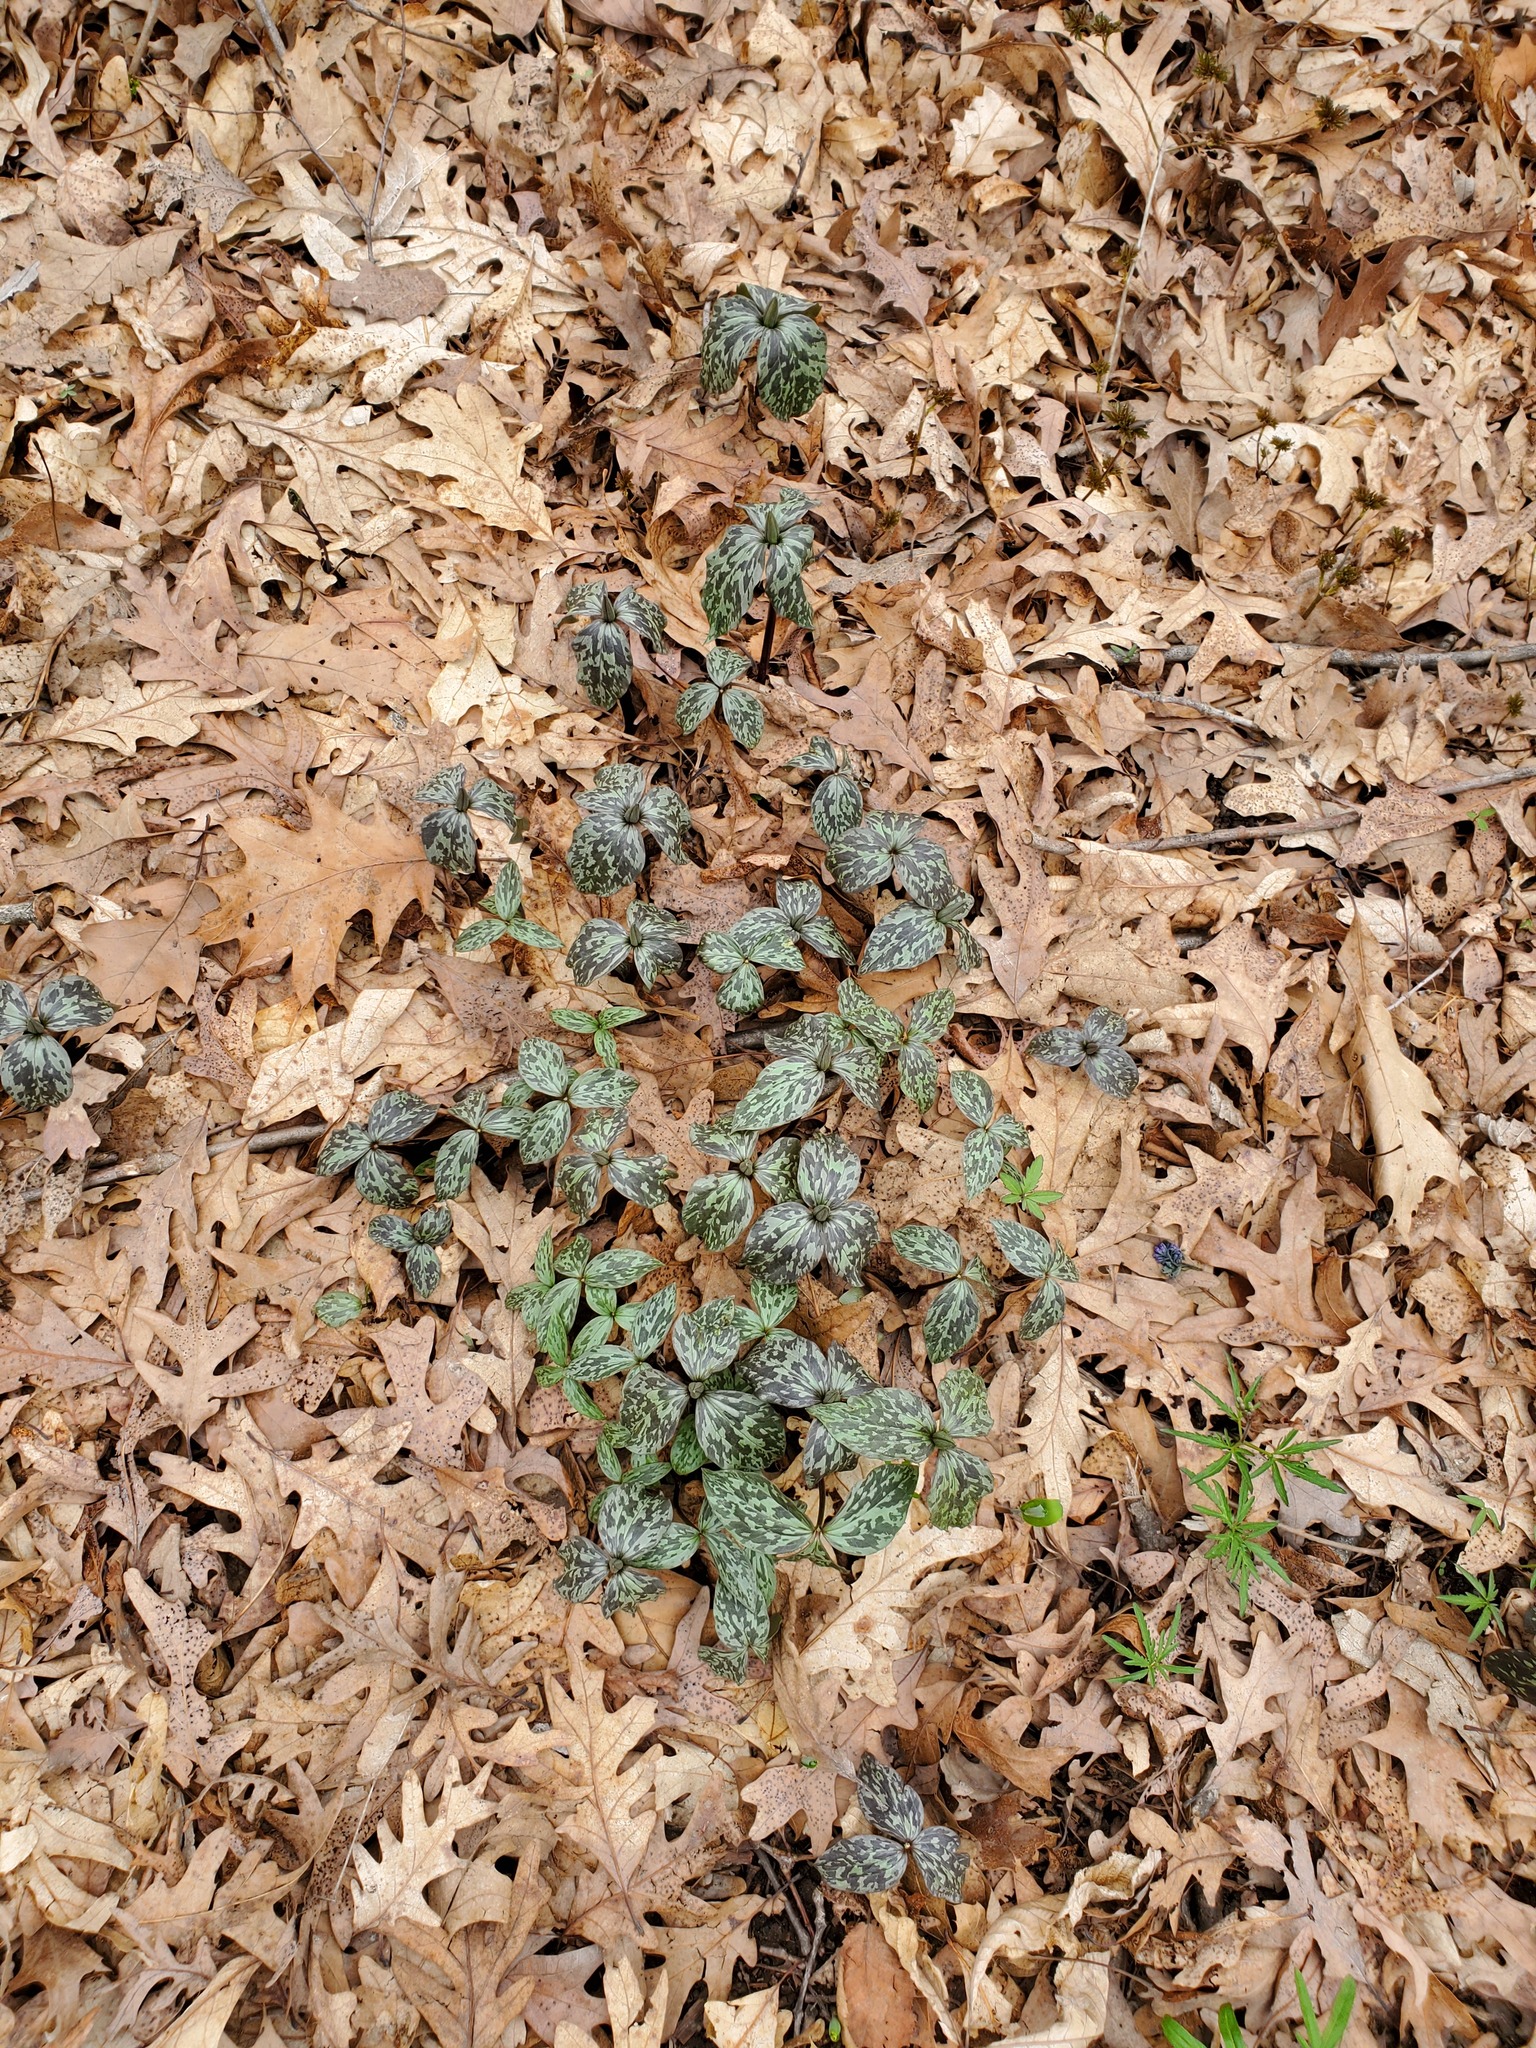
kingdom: Plantae
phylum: Tracheophyta
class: Liliopsida
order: Liliales
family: Melanthiaceae
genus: Trillium
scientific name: Trillium recurvatum
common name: Bloody butcher
